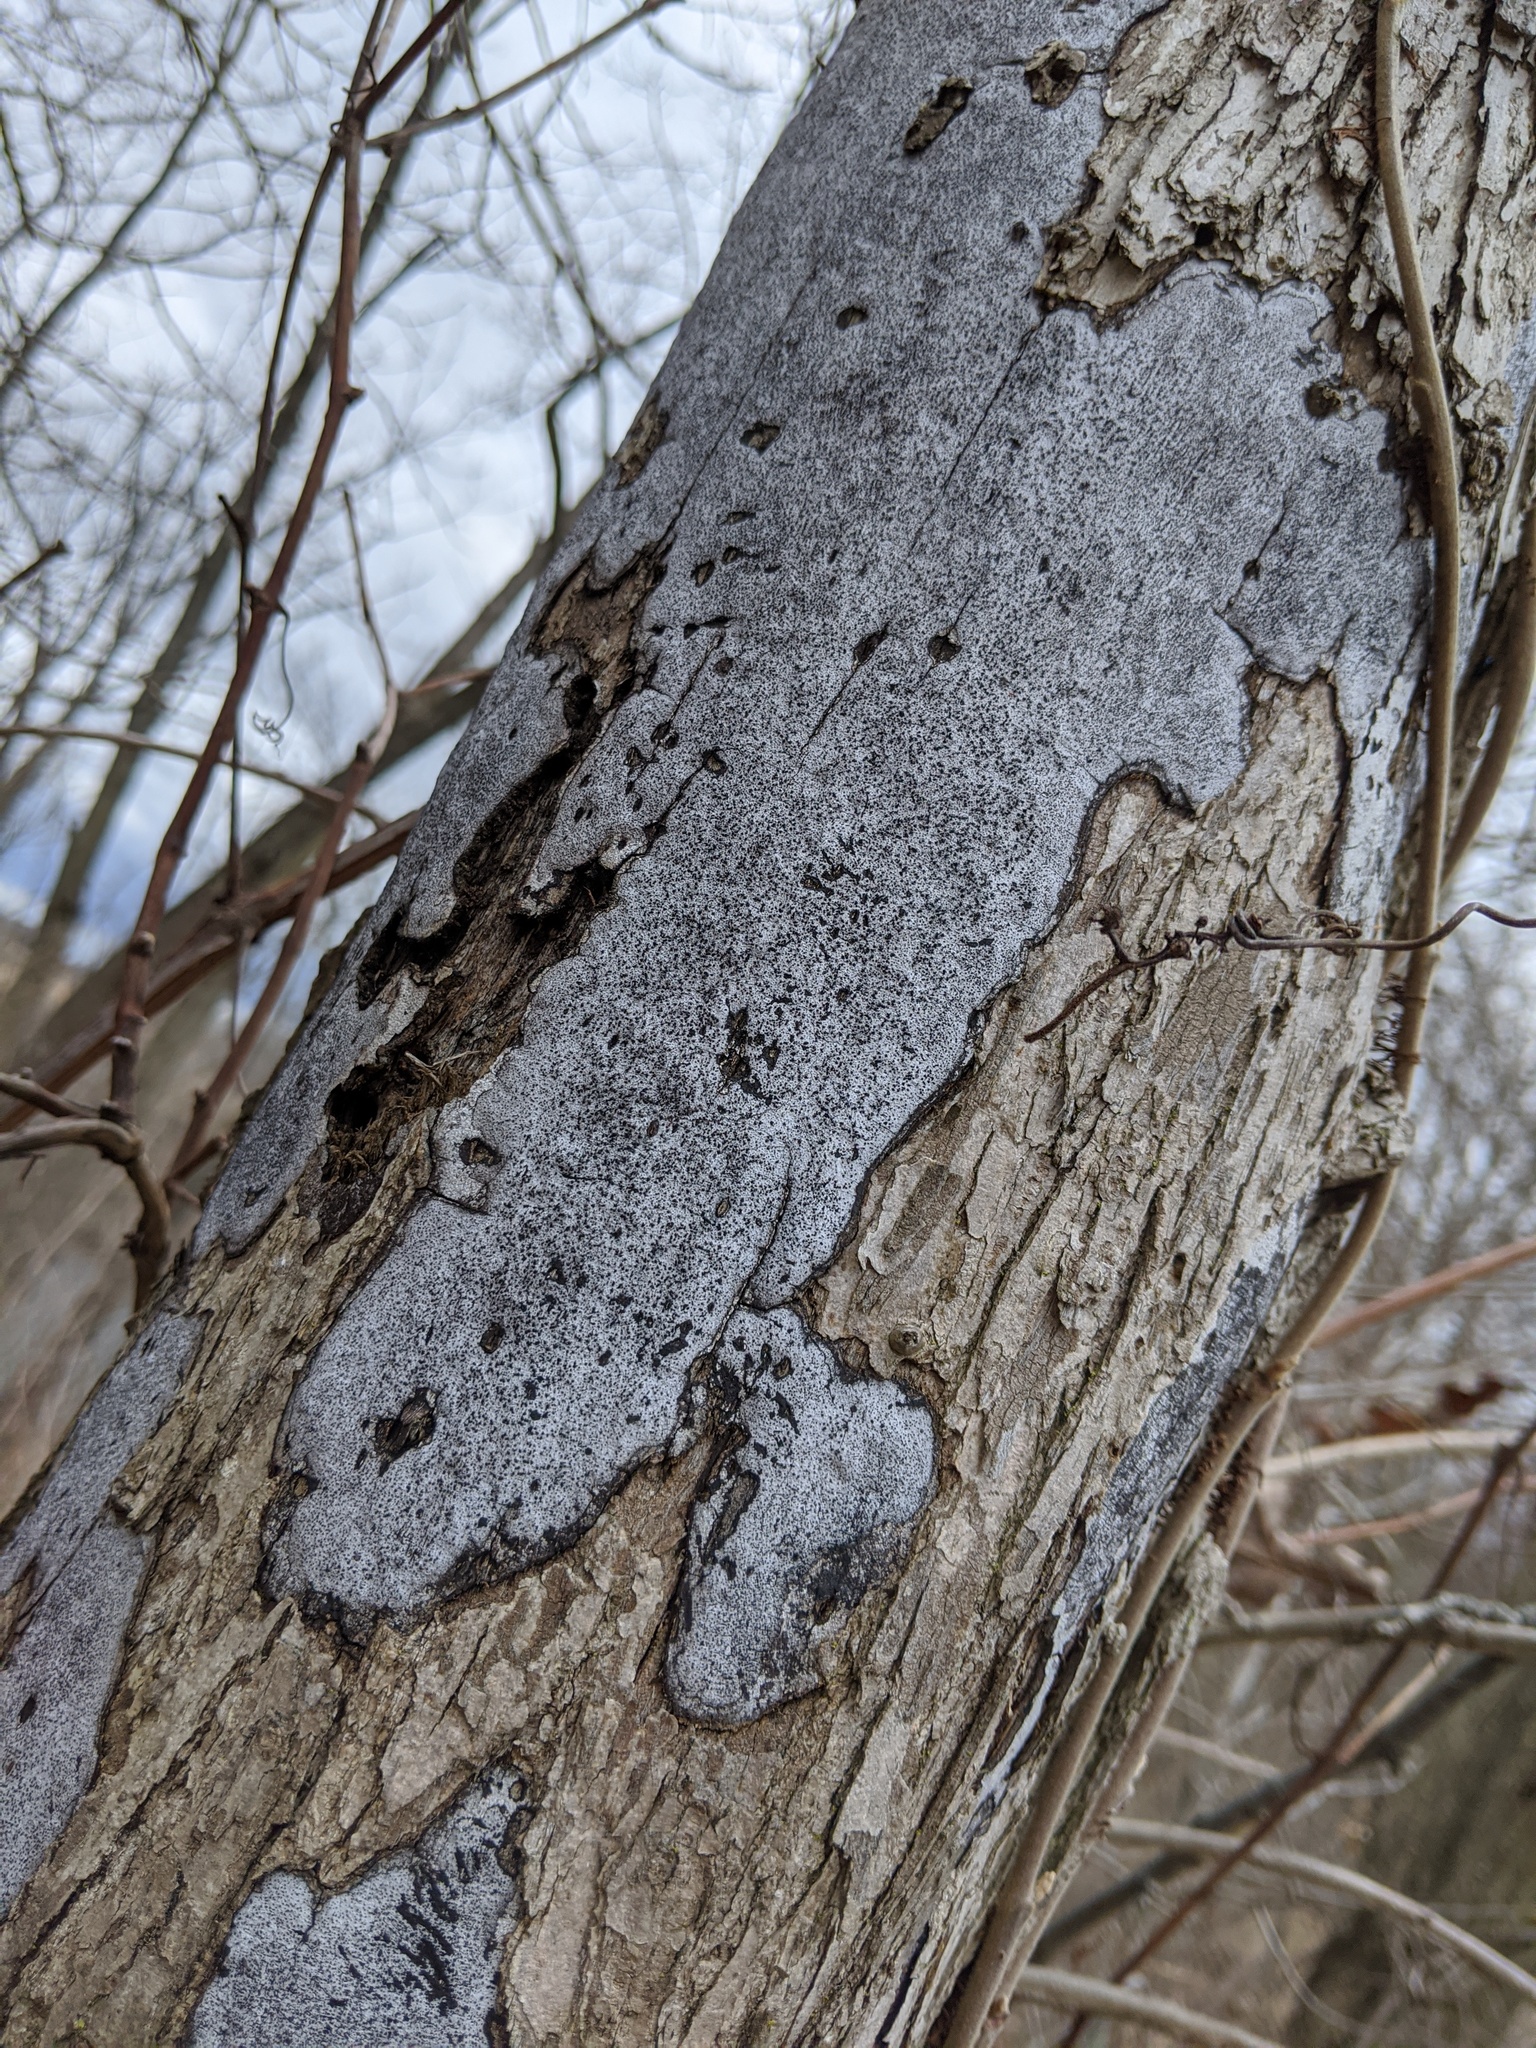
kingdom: Fungi
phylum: Ascomycota
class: Sordariomycetes
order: Xylariales
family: Graphostromataceae
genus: Biscogniauxia
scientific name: Biscogniauxia atropunctata
